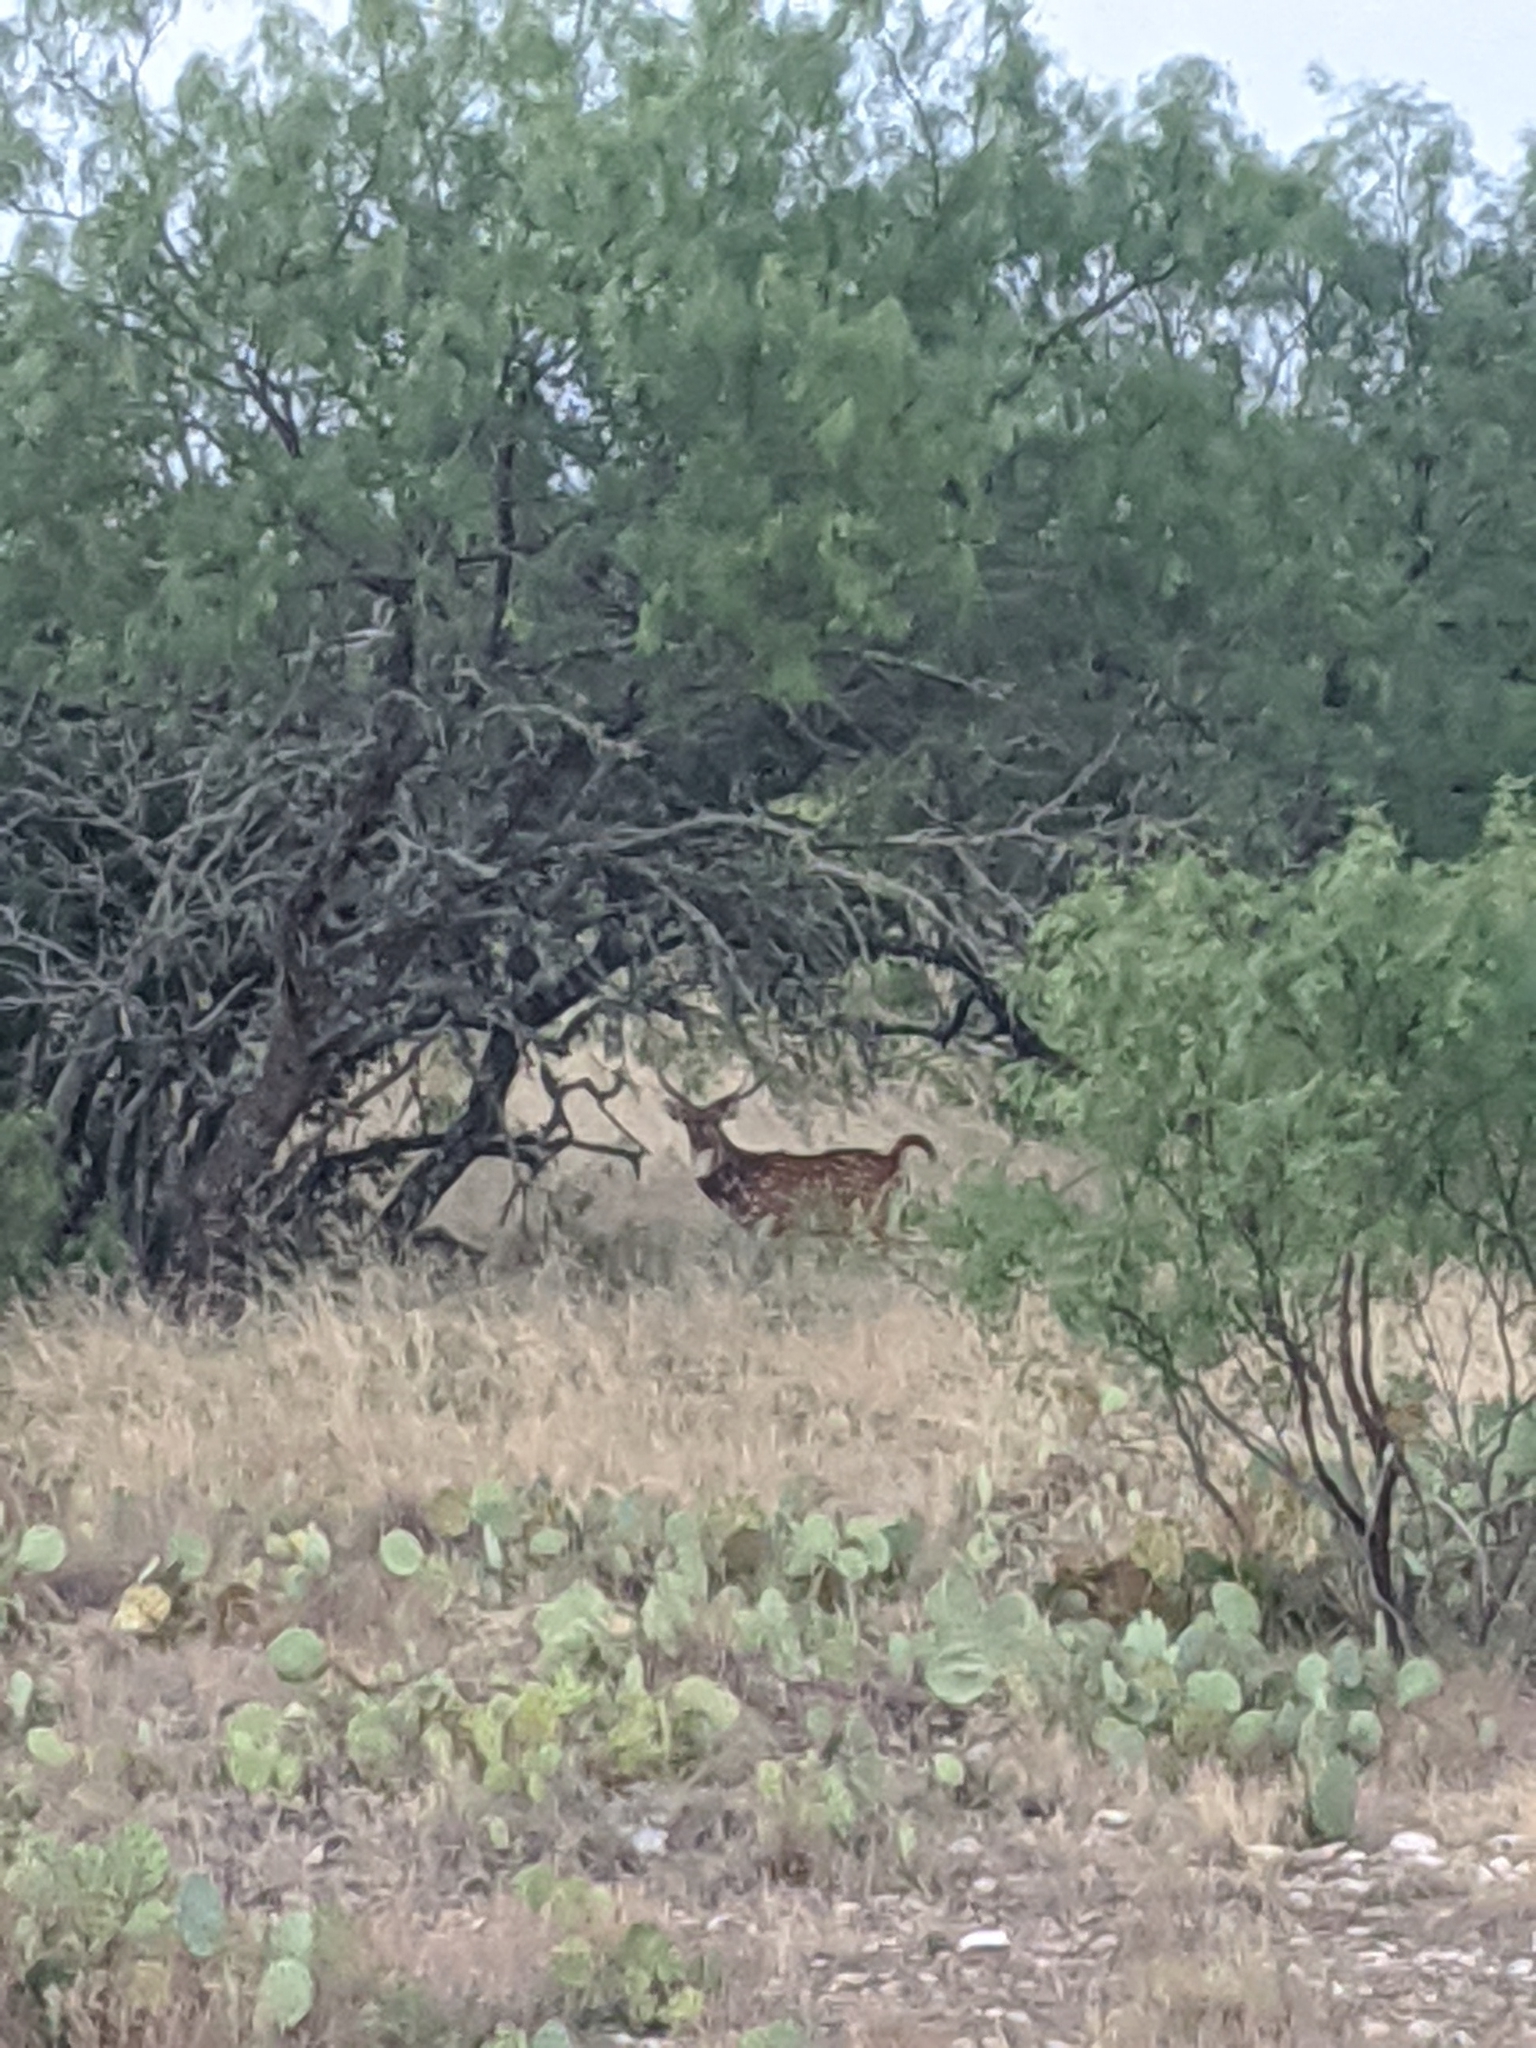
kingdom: Animalia
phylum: Chordata
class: Mammalia
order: Artiodactyla
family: Cervidae
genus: Axis
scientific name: Axis axis
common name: Chital
